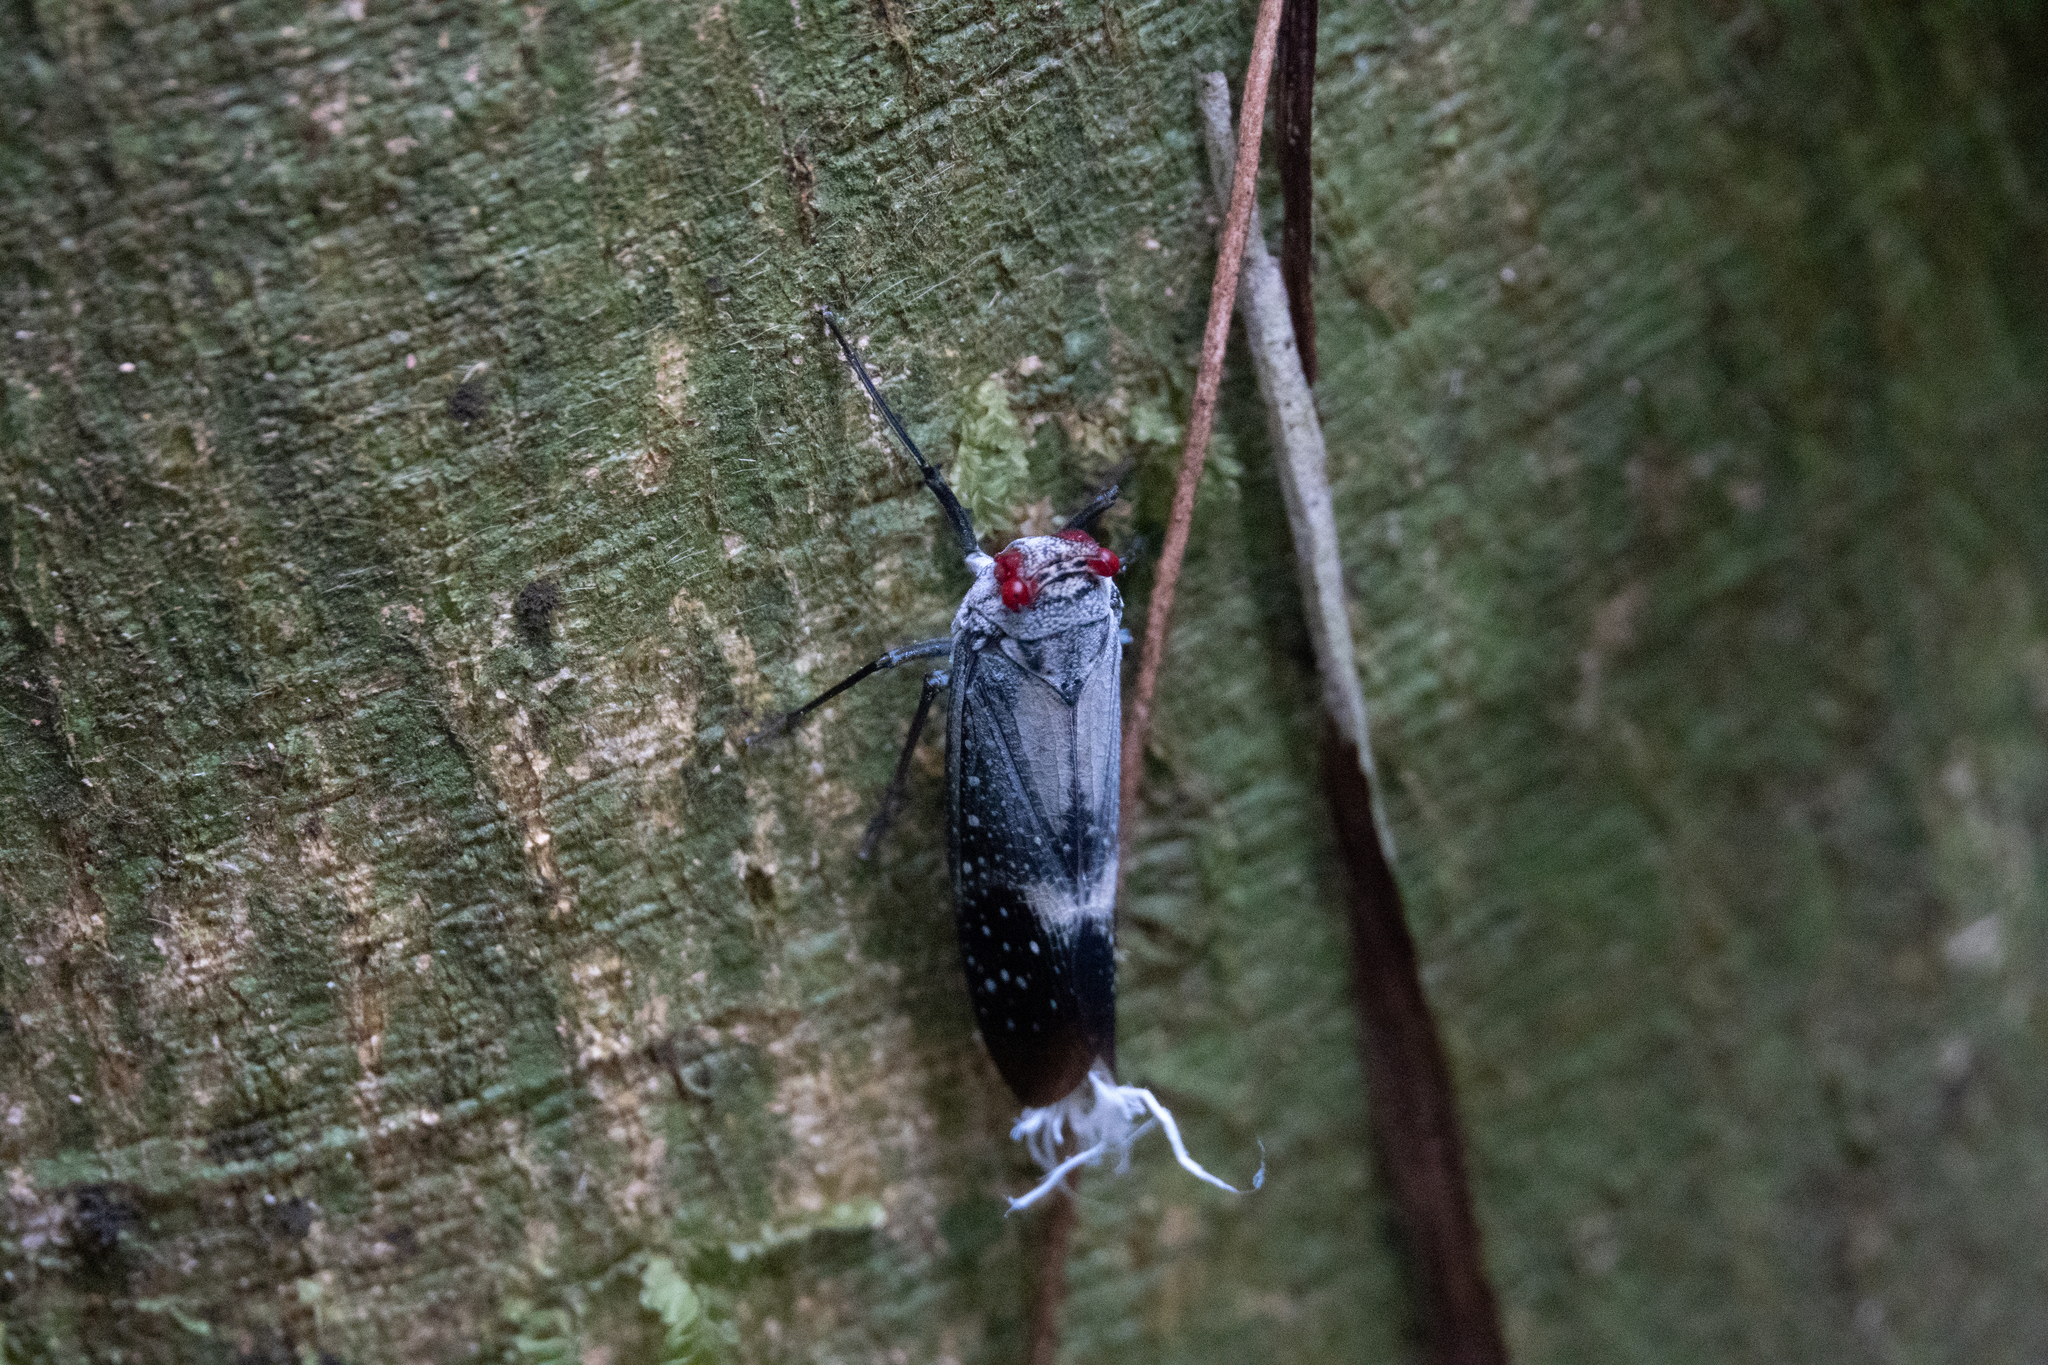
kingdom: Animalia
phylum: Arthropoda
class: Insecta
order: Hemiptera
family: Fulgoridae
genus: Lystra
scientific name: Lystra pulverulenta
